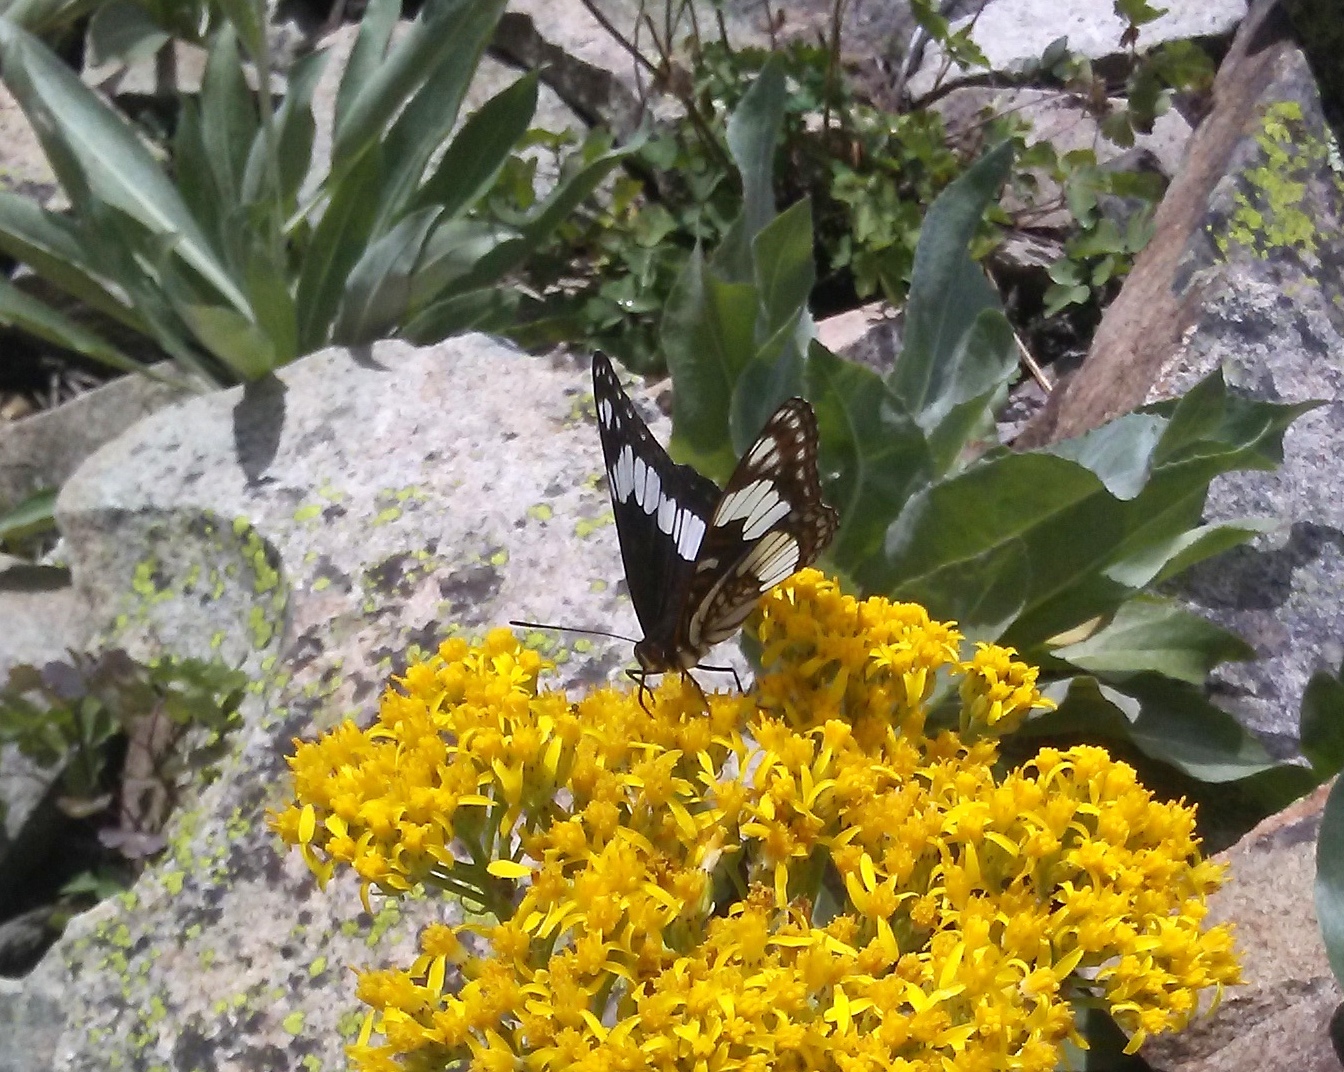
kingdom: Animalia
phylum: Arthropoda
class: Insecta
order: Lepidoptera
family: Nymphalidae
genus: Limenitis
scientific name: Limenitis weidemeyerii
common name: Weidemeyer's admiral
